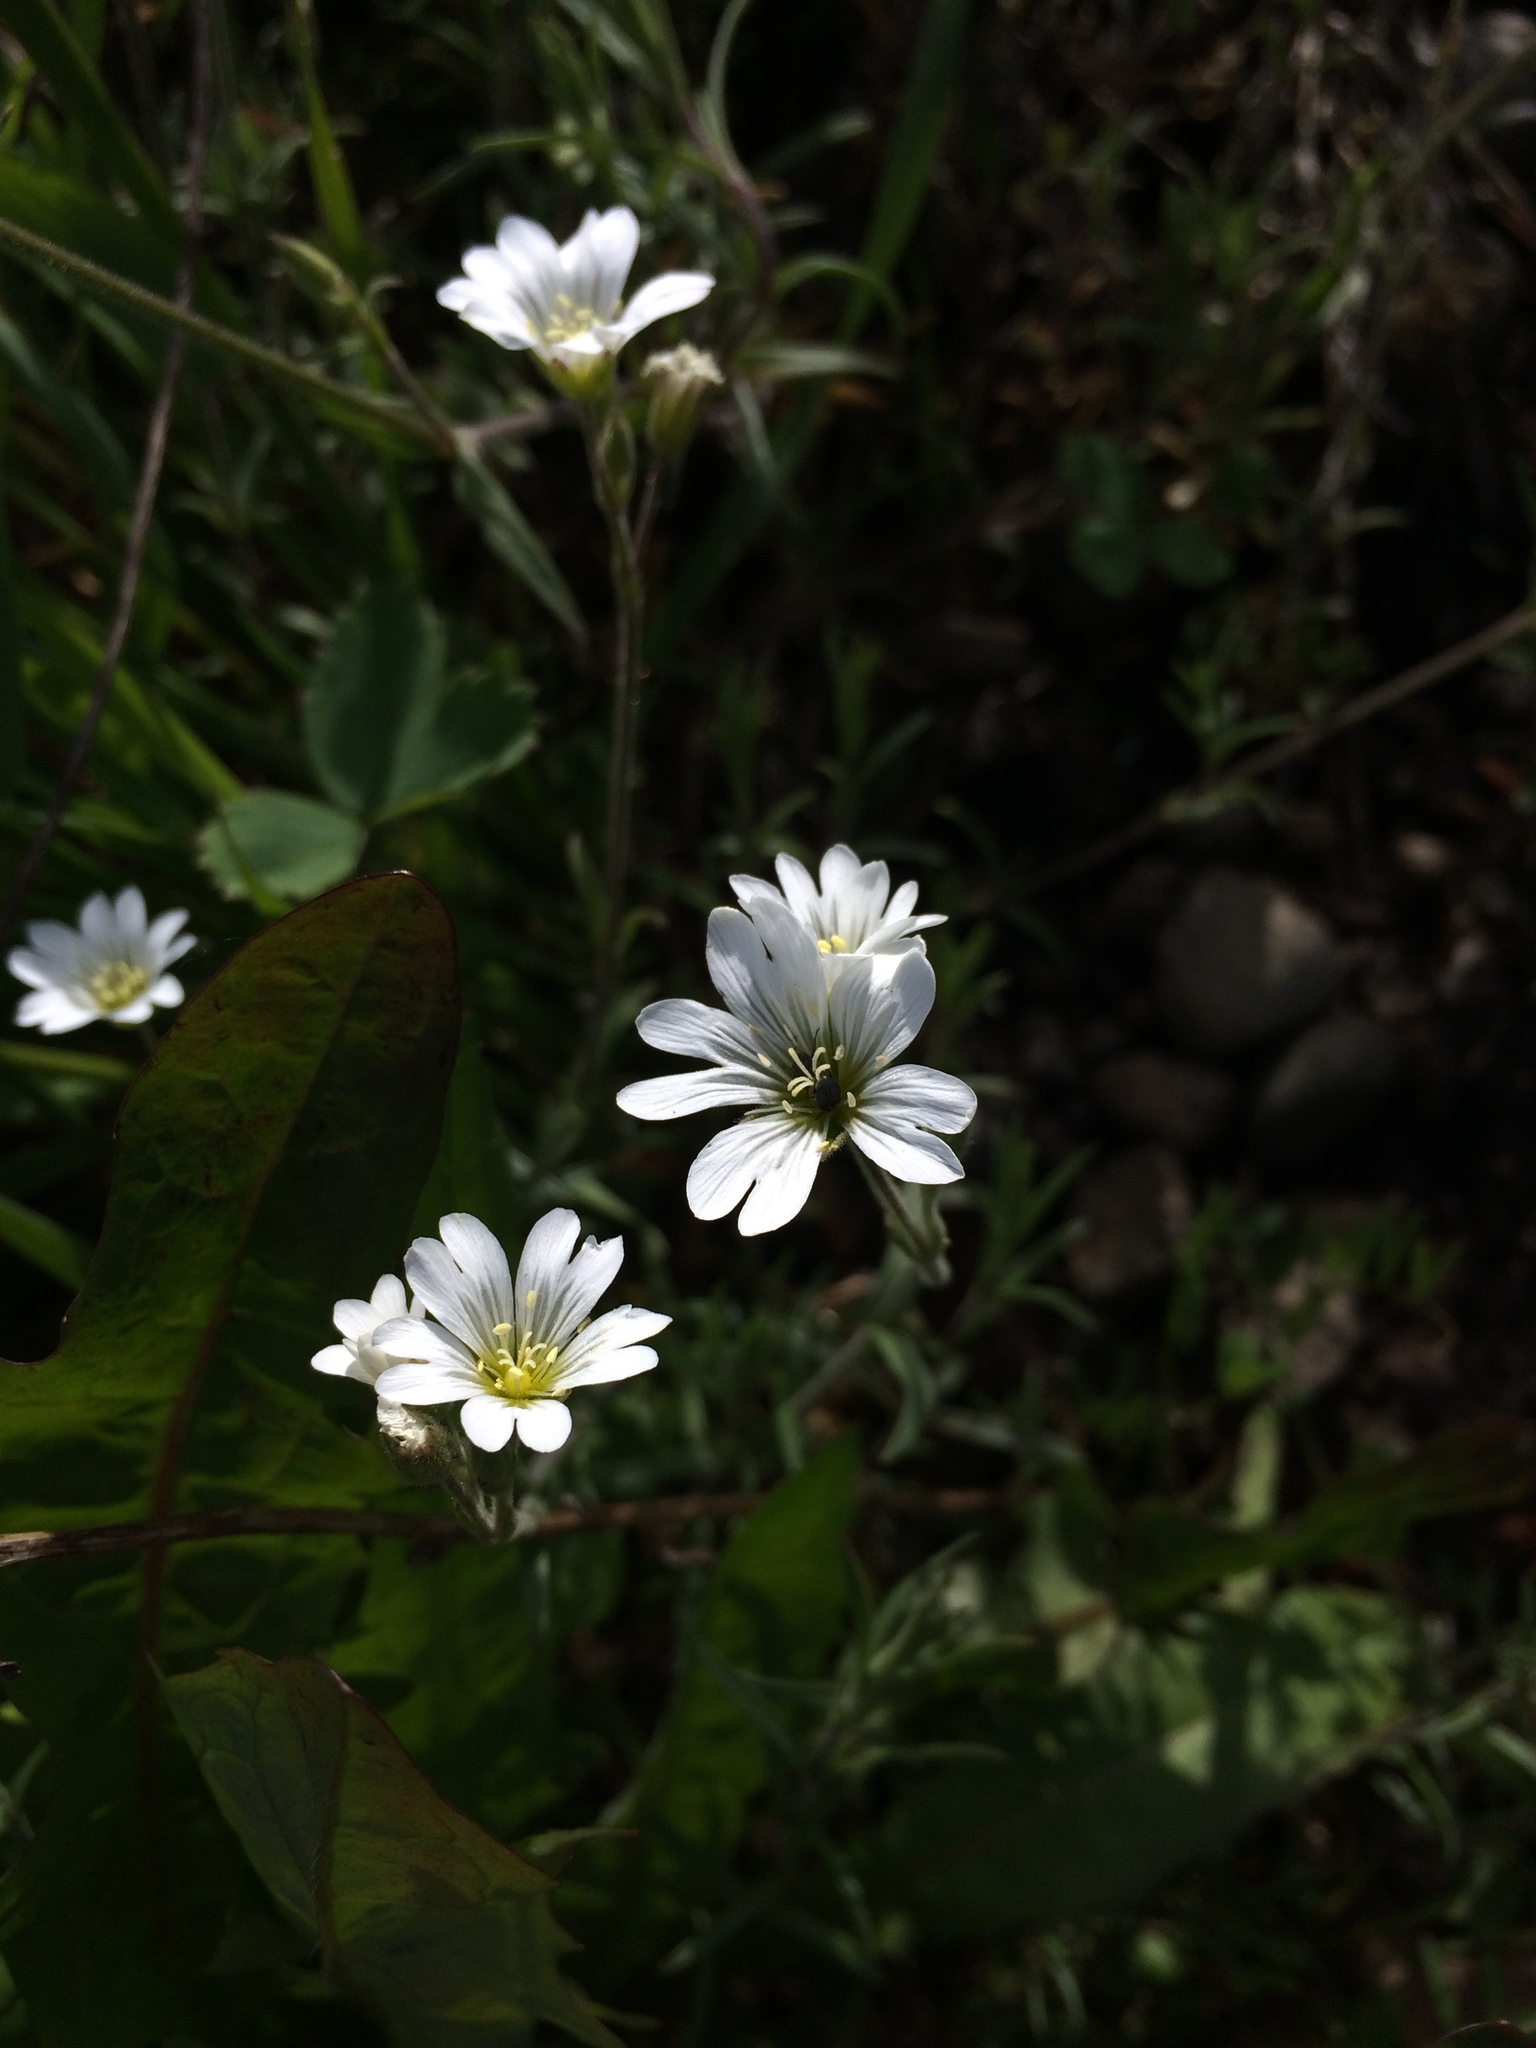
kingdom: Plantae
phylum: Tracheophyta
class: Magnoliopsida
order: Caryophyllales
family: Caryophyllaceae
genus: Cerastium
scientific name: Cerastium arvense
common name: Field mouse-ear
